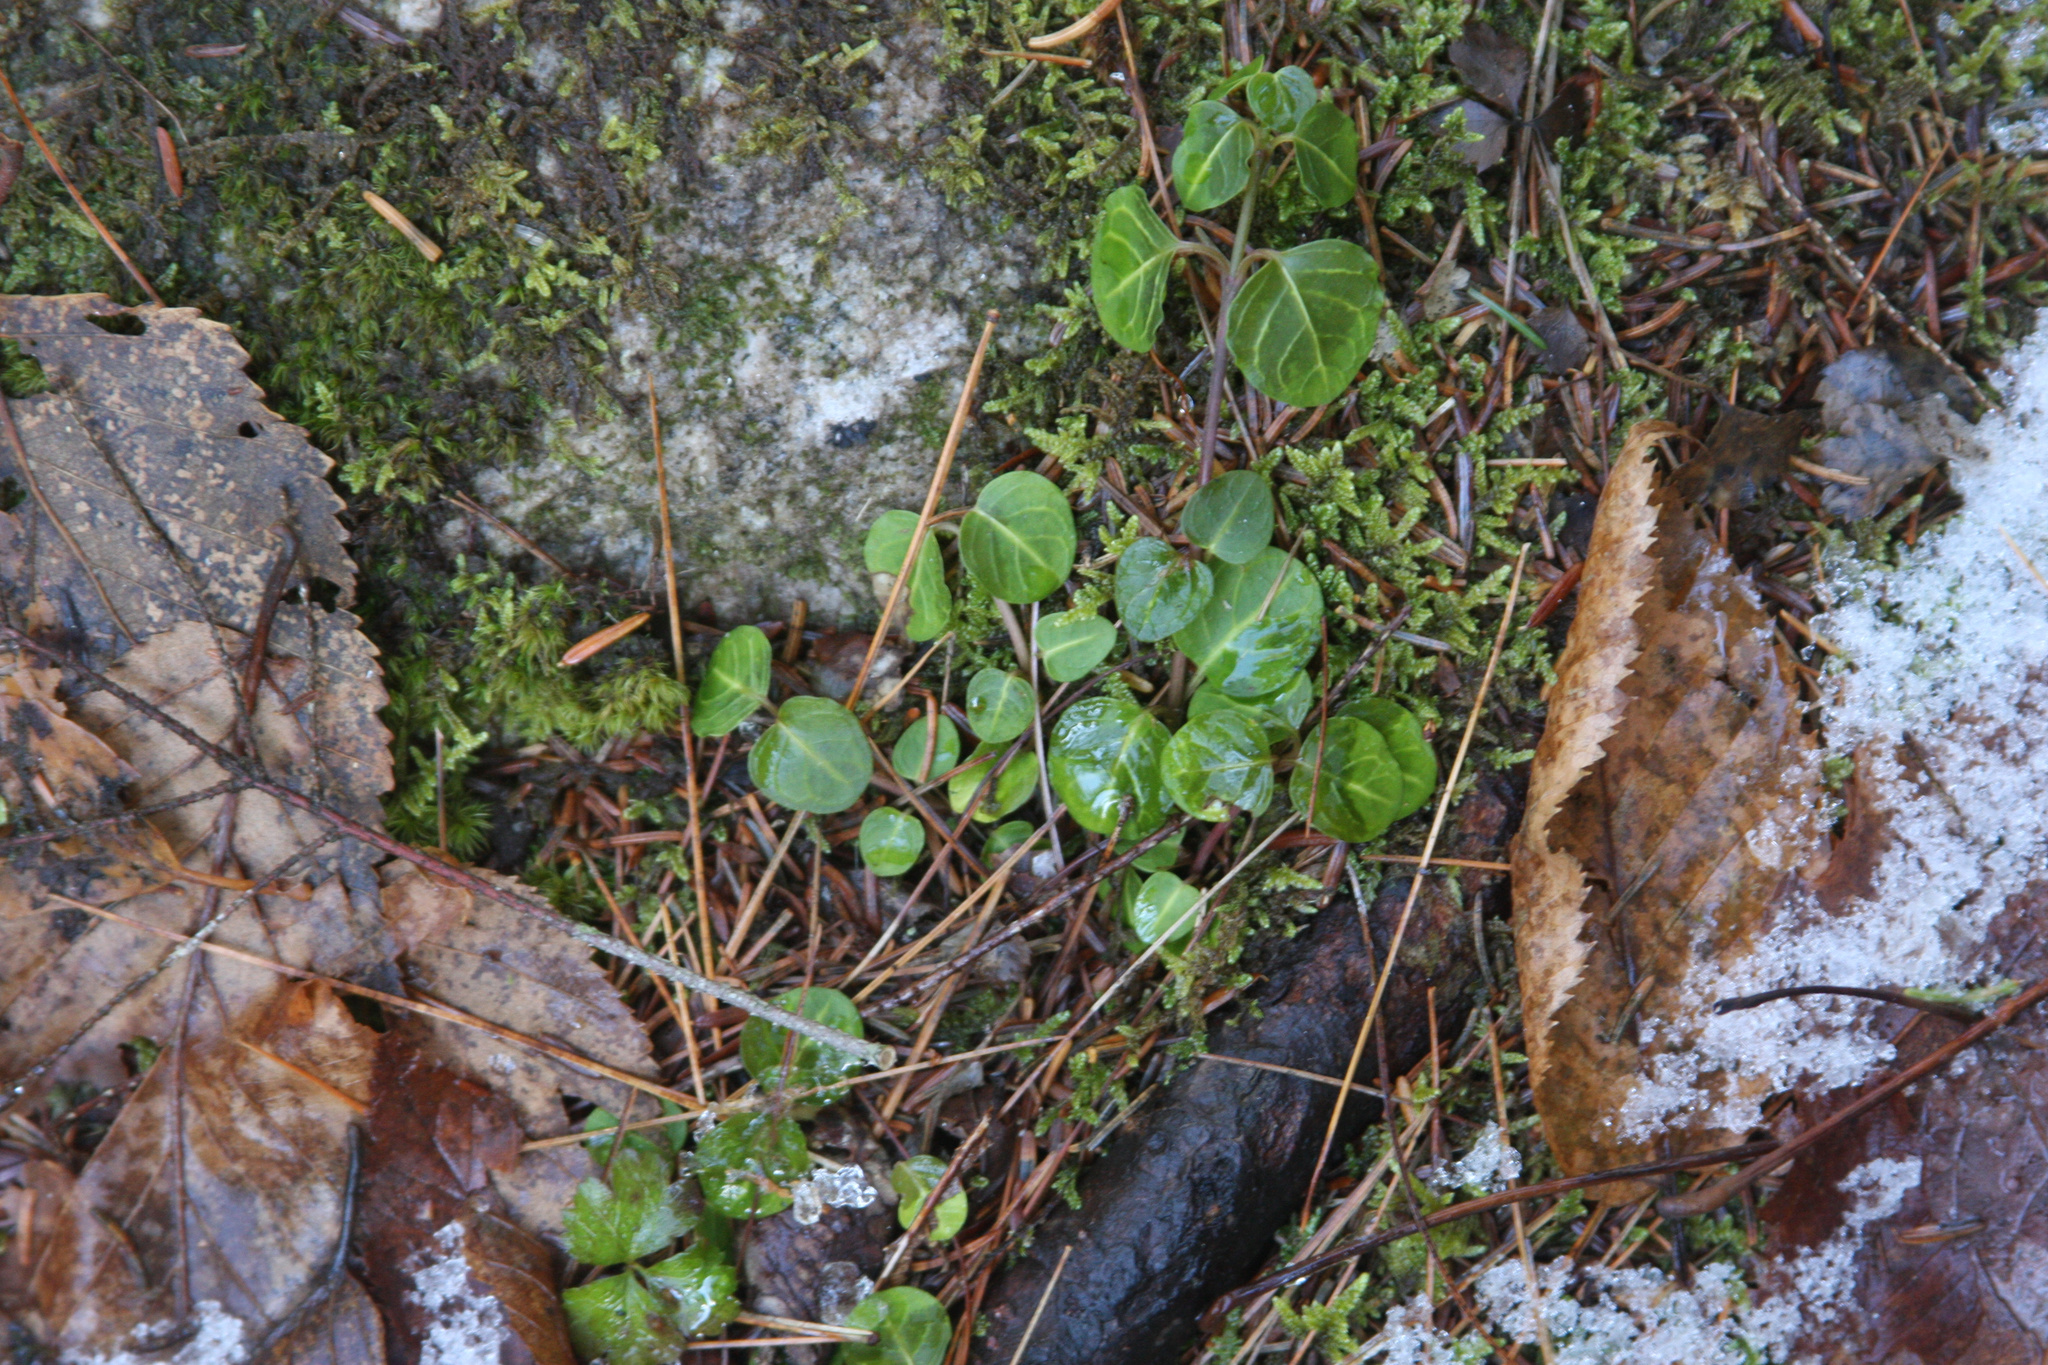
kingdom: Plantae
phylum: Tracheophyta
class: Magnoliopsida
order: Gentianales
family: Rubiaceae
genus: Mitchella
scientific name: Mitchella repens
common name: Partridge-berry
